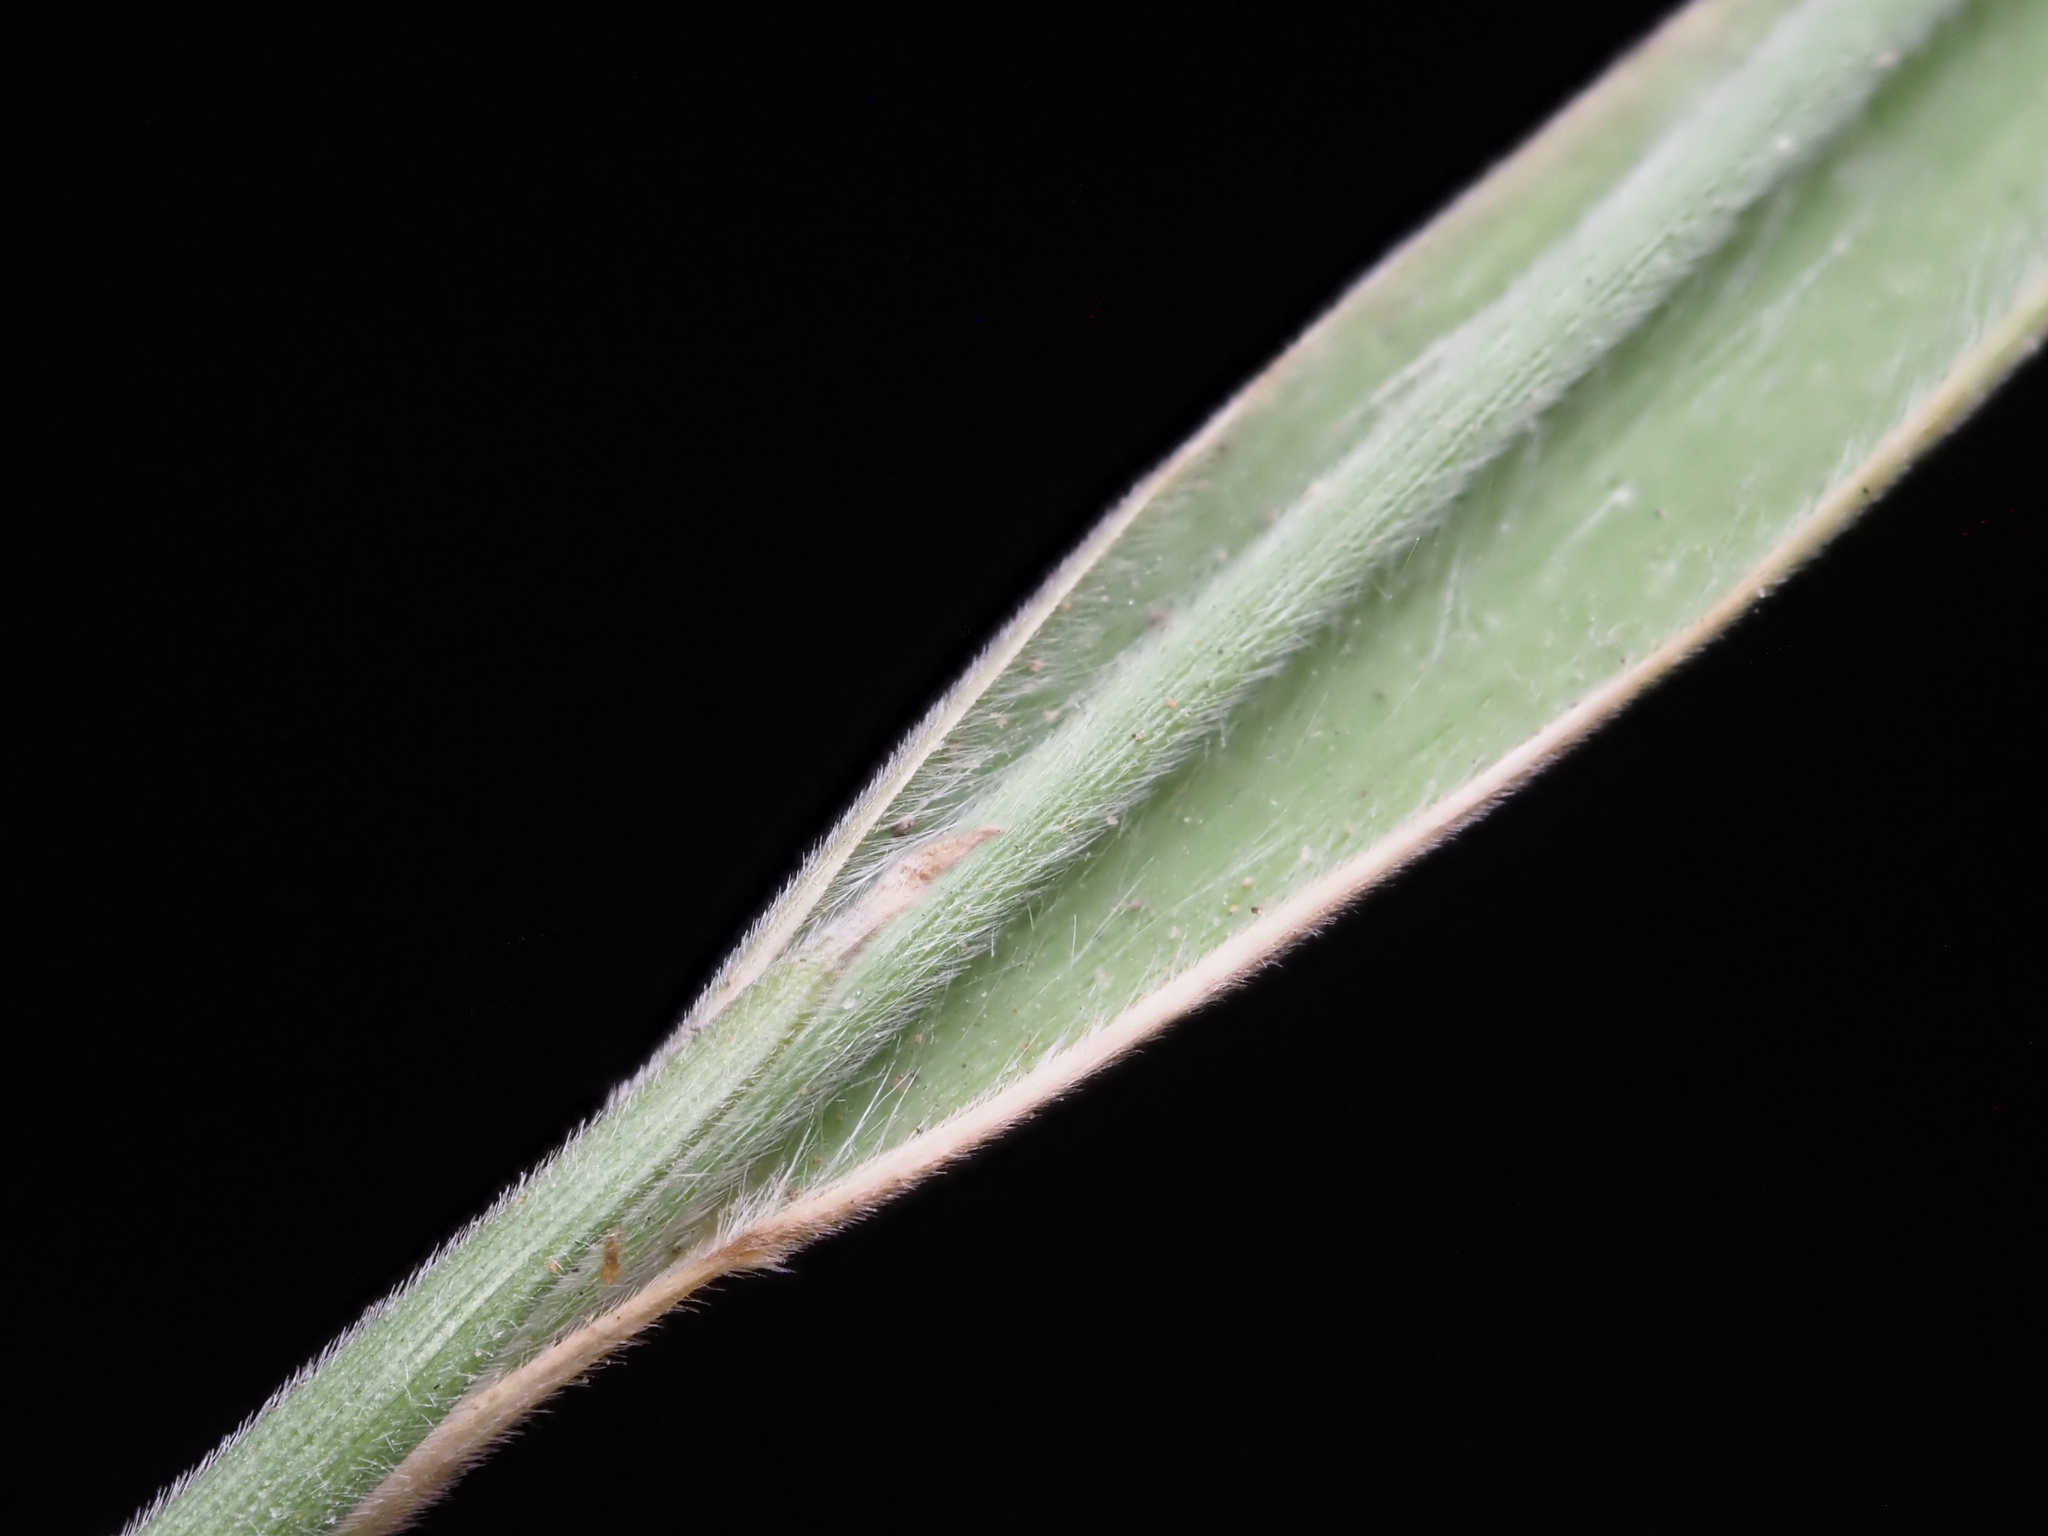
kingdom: Plantae
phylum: Tracheophyta
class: Liliopsida
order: Poales
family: Poaceae
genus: Panicum
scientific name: Panicum fauriei
